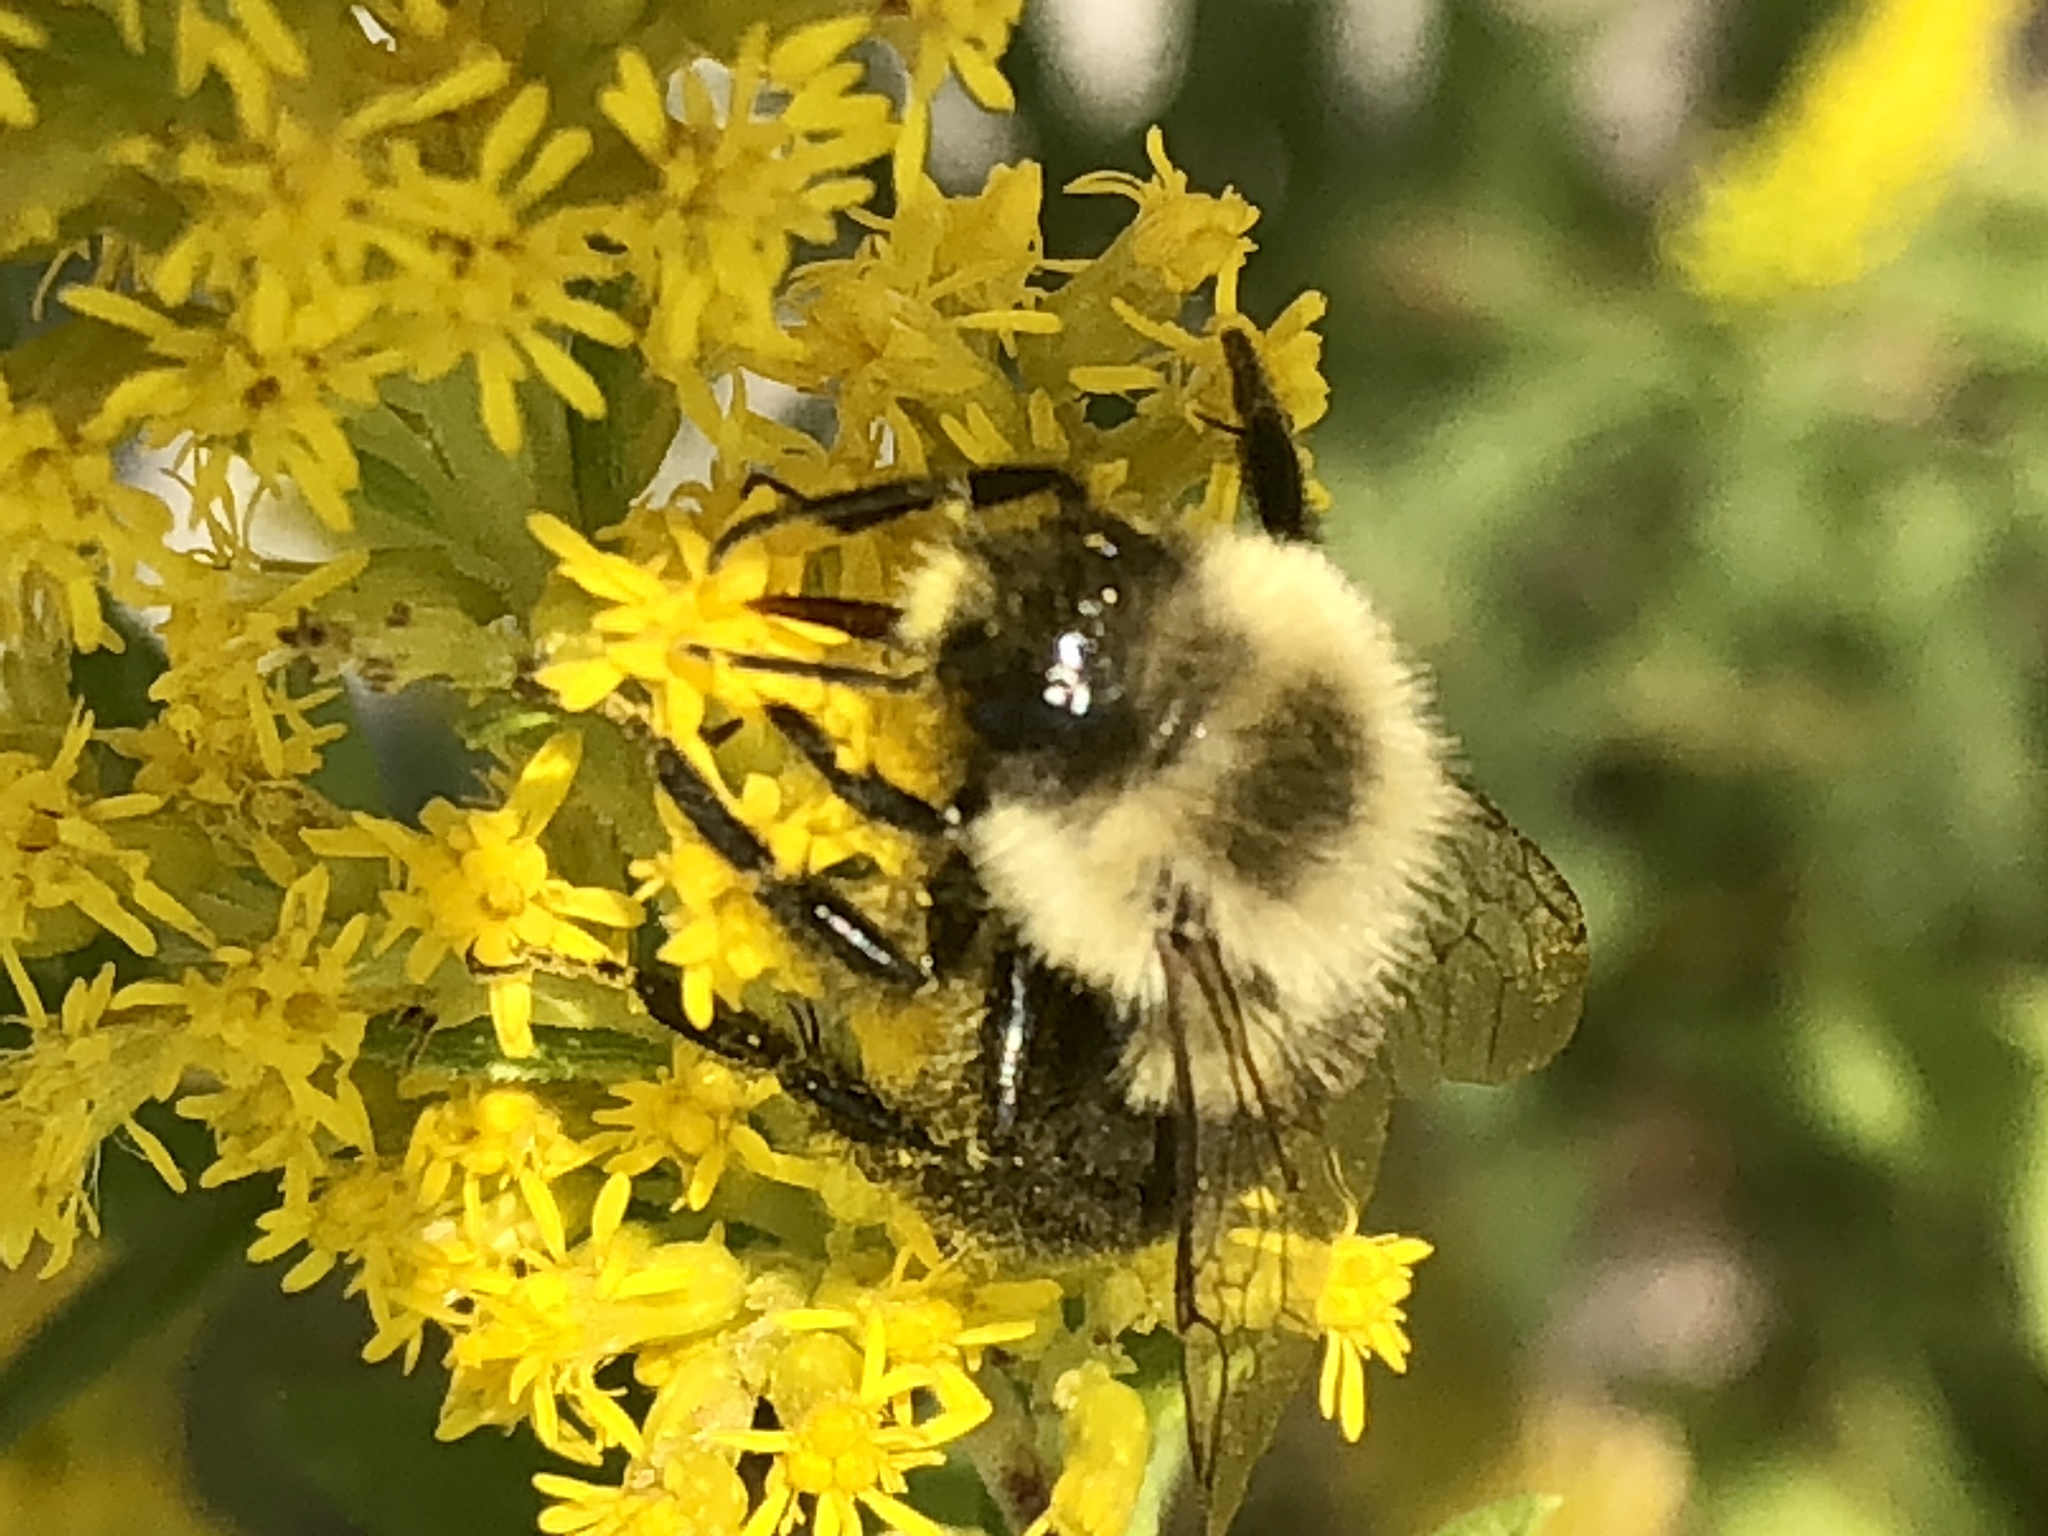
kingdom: Animalia
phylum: Arthropoda
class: Insecta
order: Hymenoptera
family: Apidae
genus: Bombus
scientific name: Bombus impatiens
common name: Common eastern bumble bee
